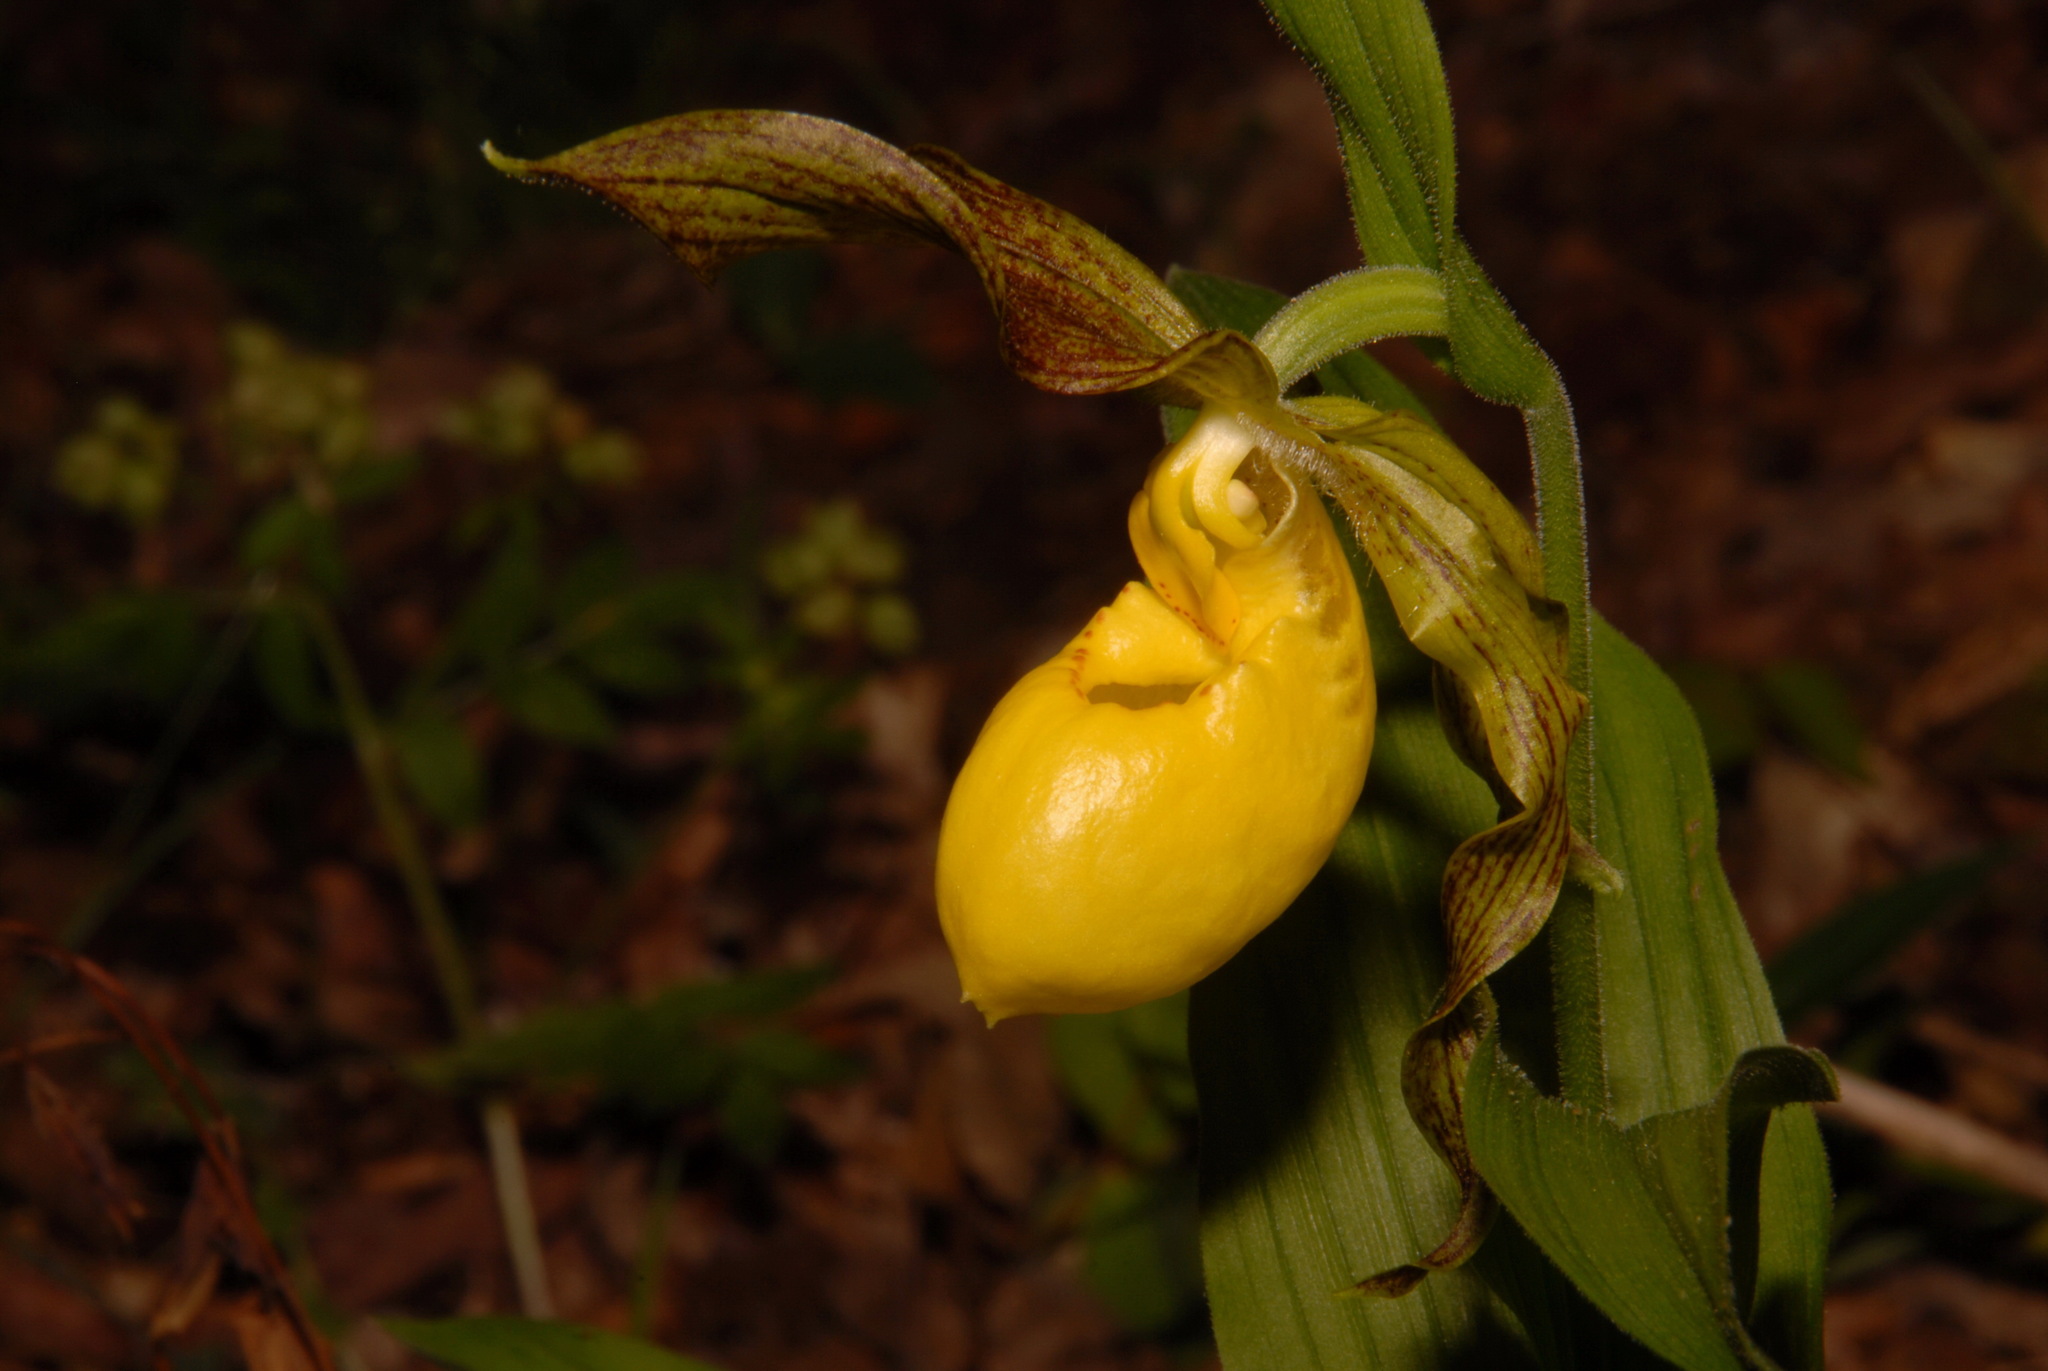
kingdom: Plantae
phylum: Tracheophyta
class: Liliopsida
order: Asparagales
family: Orchidaceae
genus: Cypripedium
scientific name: Cypripedium parviflorum
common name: American yellow lady's-slipper
